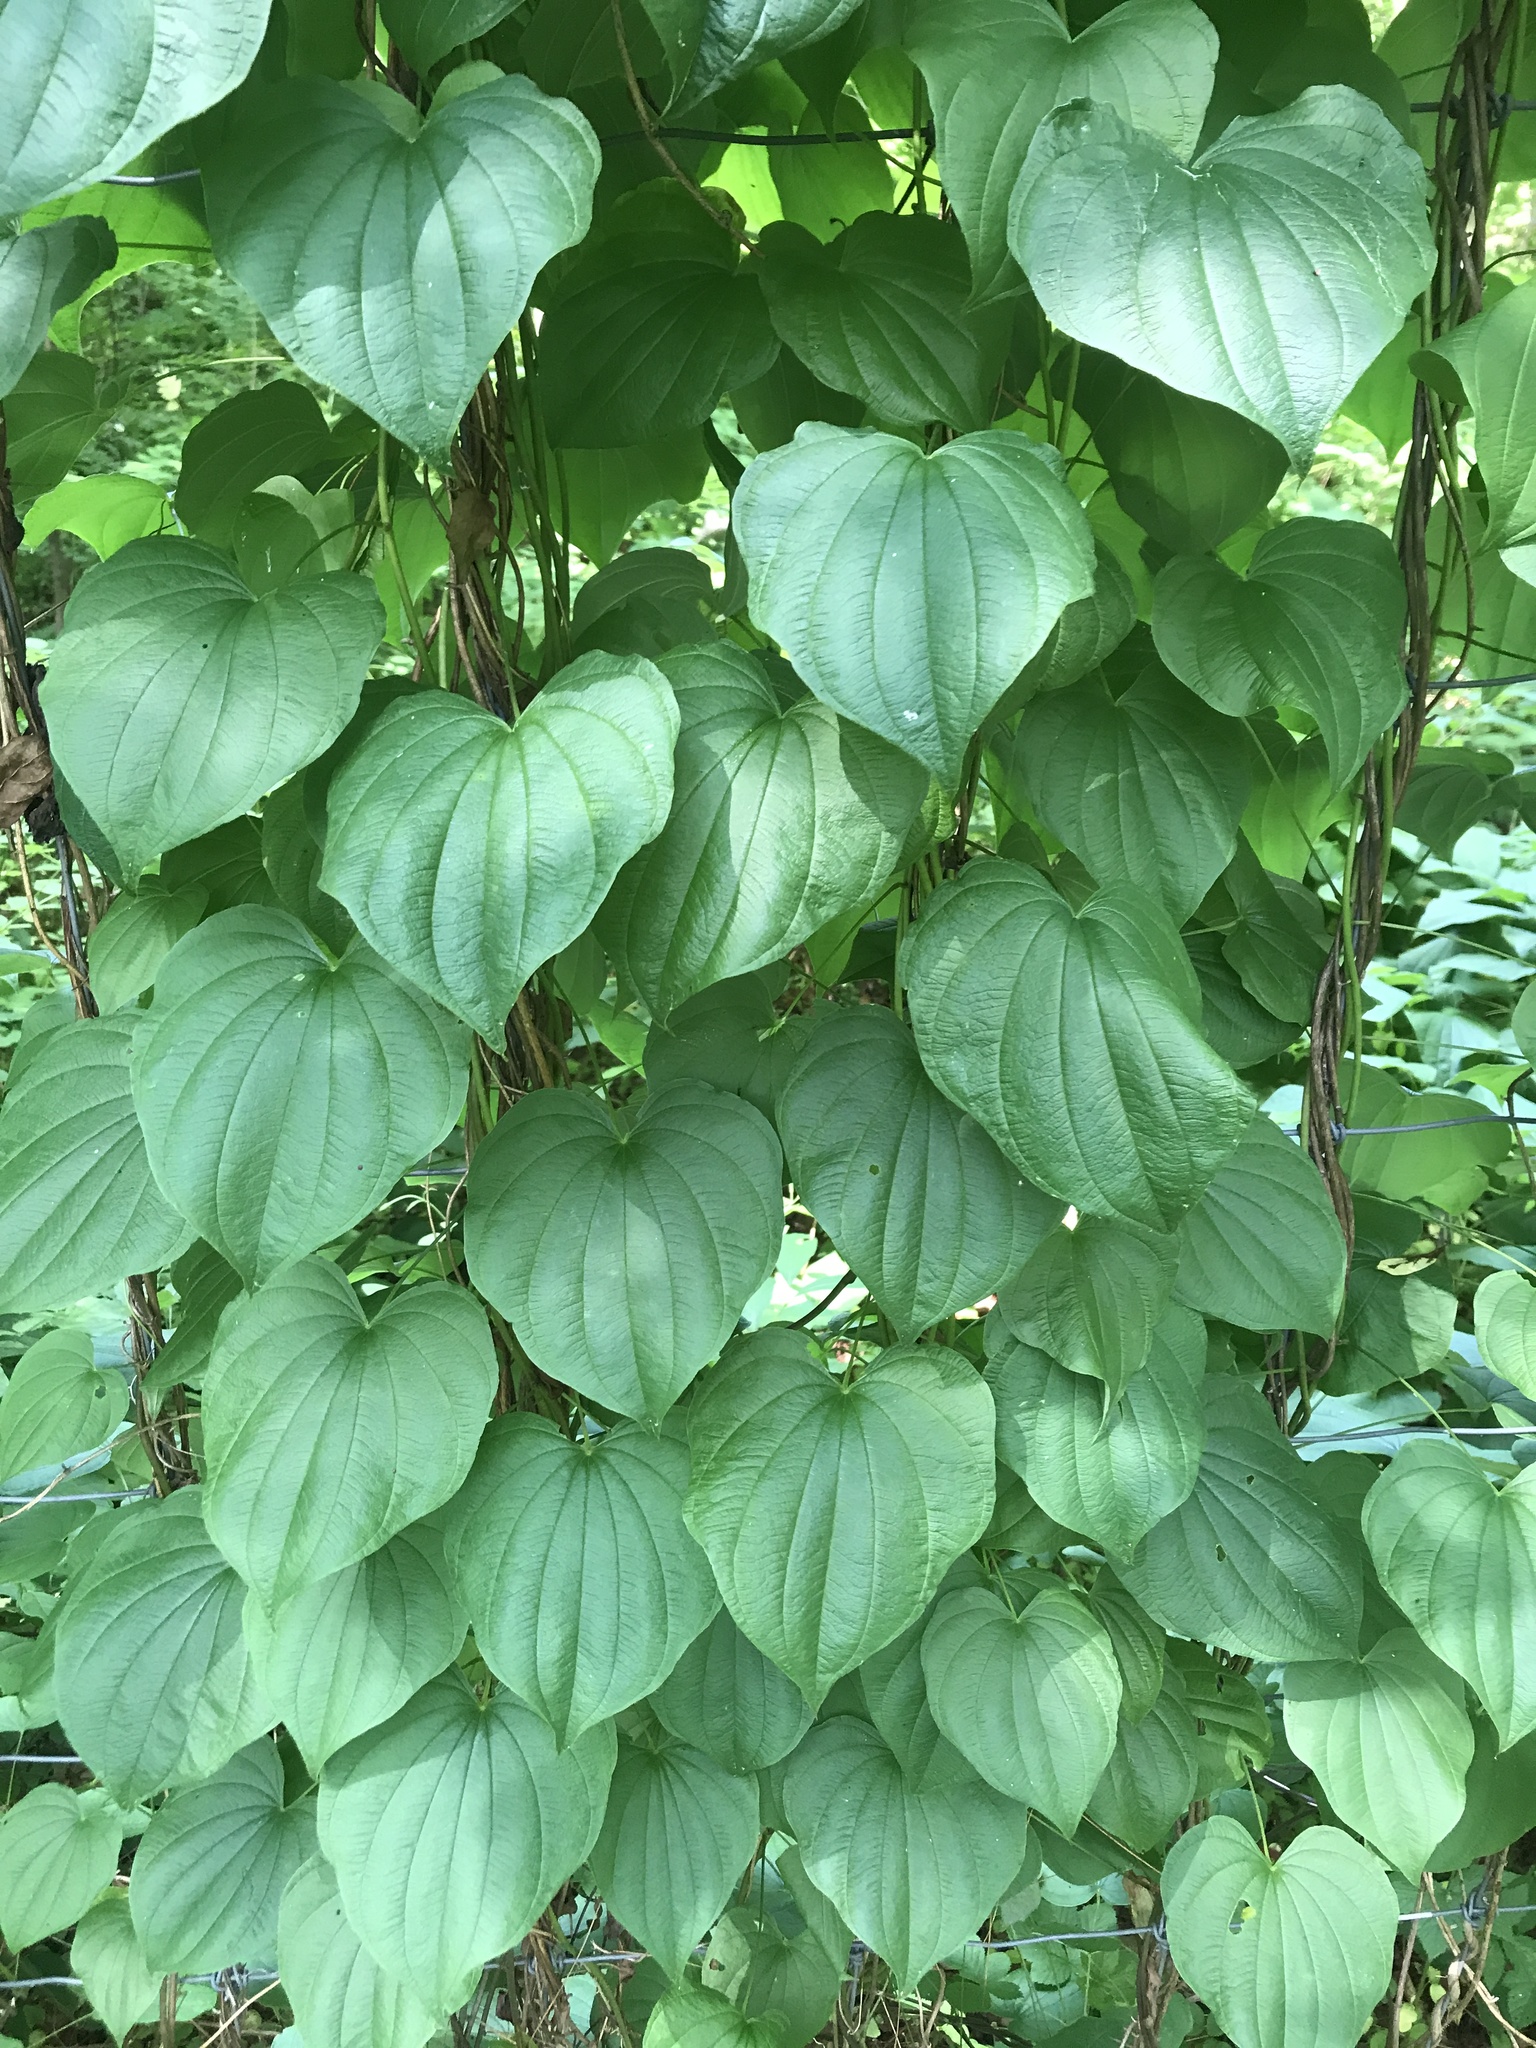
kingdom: Plantae
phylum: Tracheophyta
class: Liliopsida
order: Dioscoreales
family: Dioscoreaceae
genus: Dioscorea
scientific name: Dioscorea villosa
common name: Wild yam
